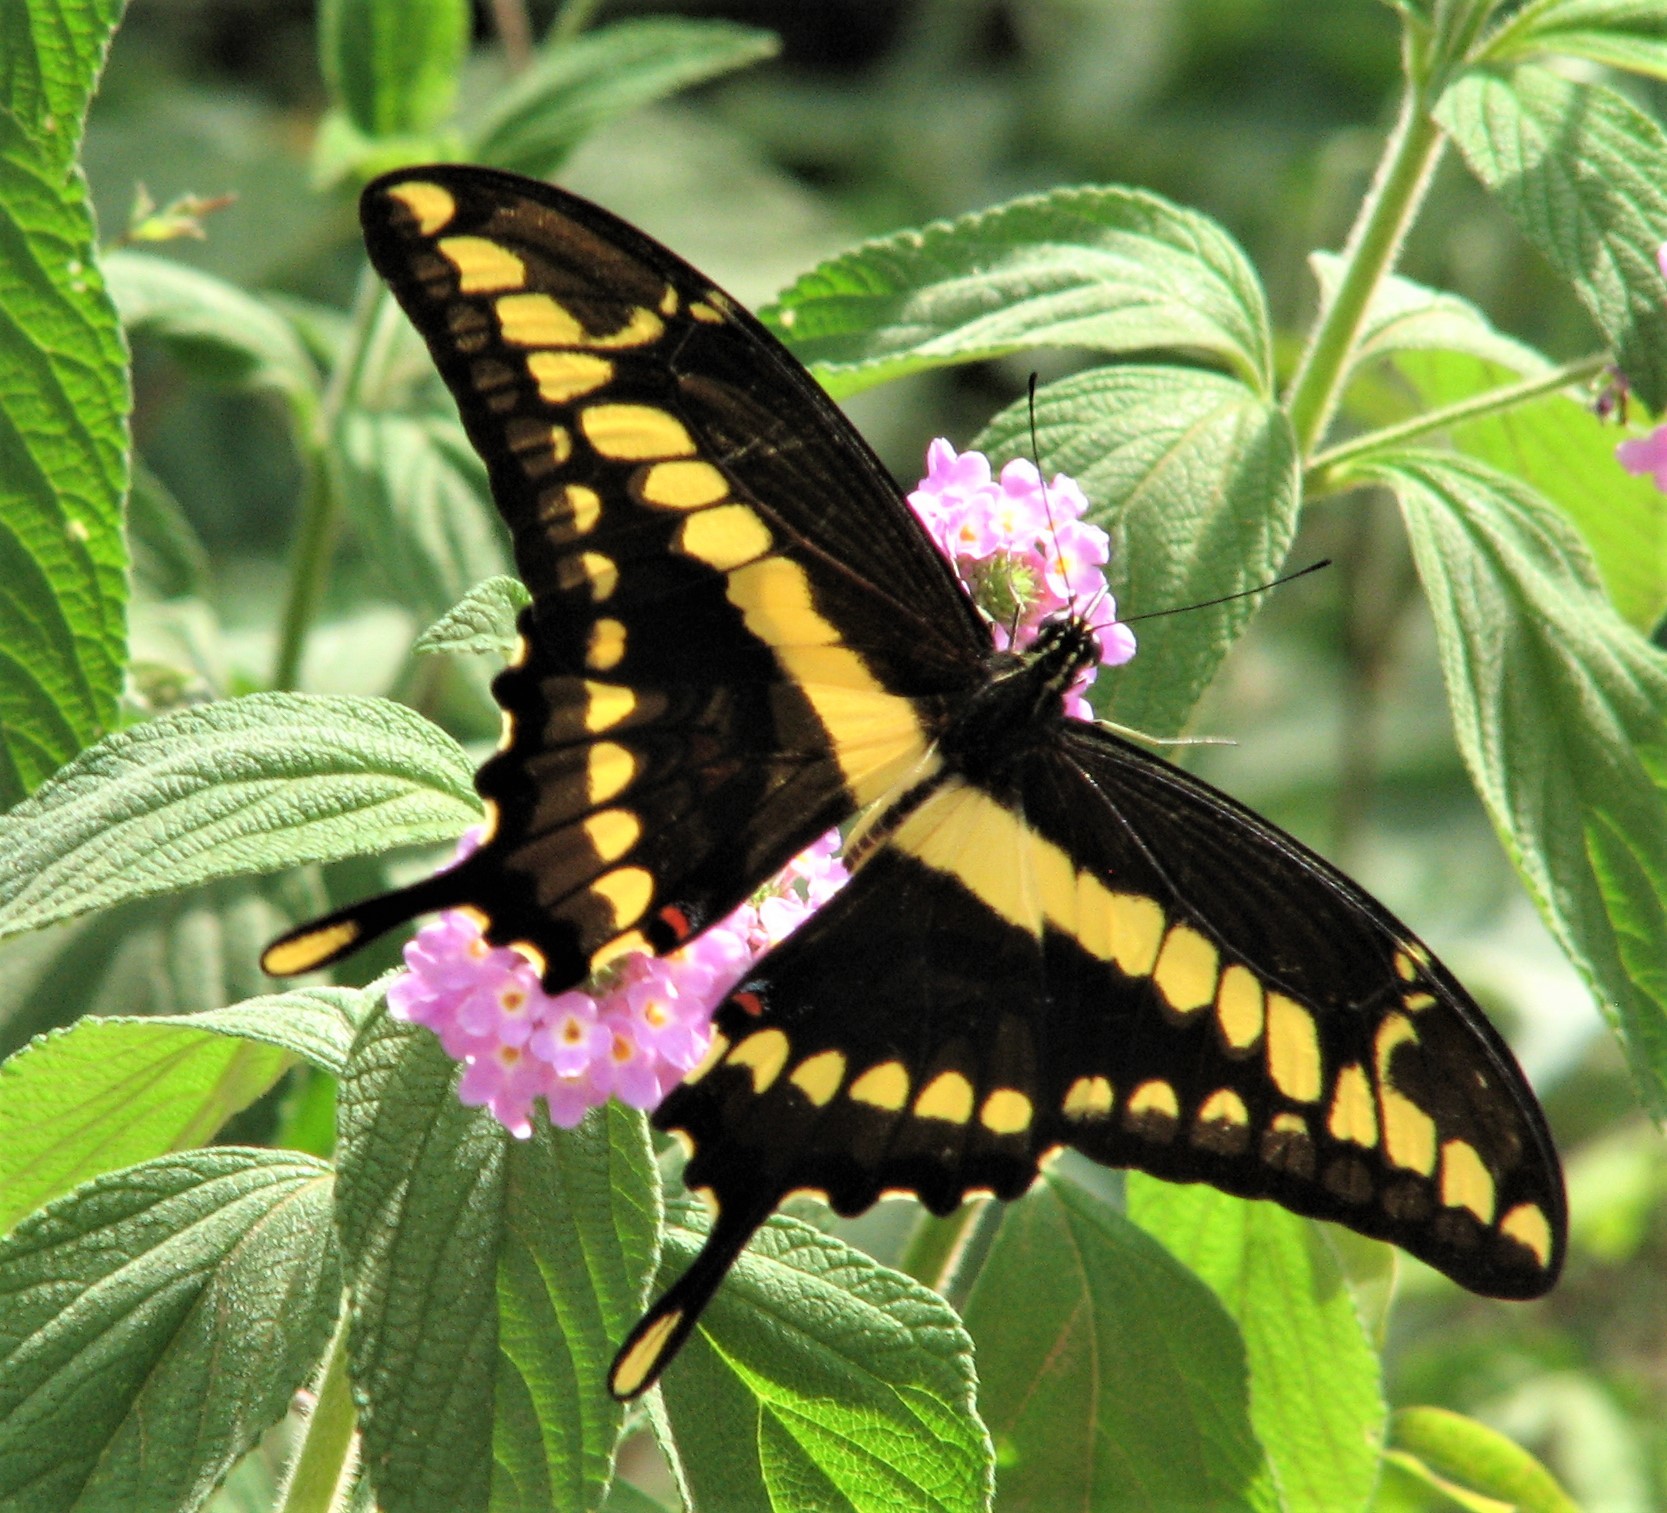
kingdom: Animalia
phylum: Arthropoda
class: Insecta
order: Lepidoptera
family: Papilionidae
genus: Papilio
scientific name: Papilio thoas
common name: King swallowtail
